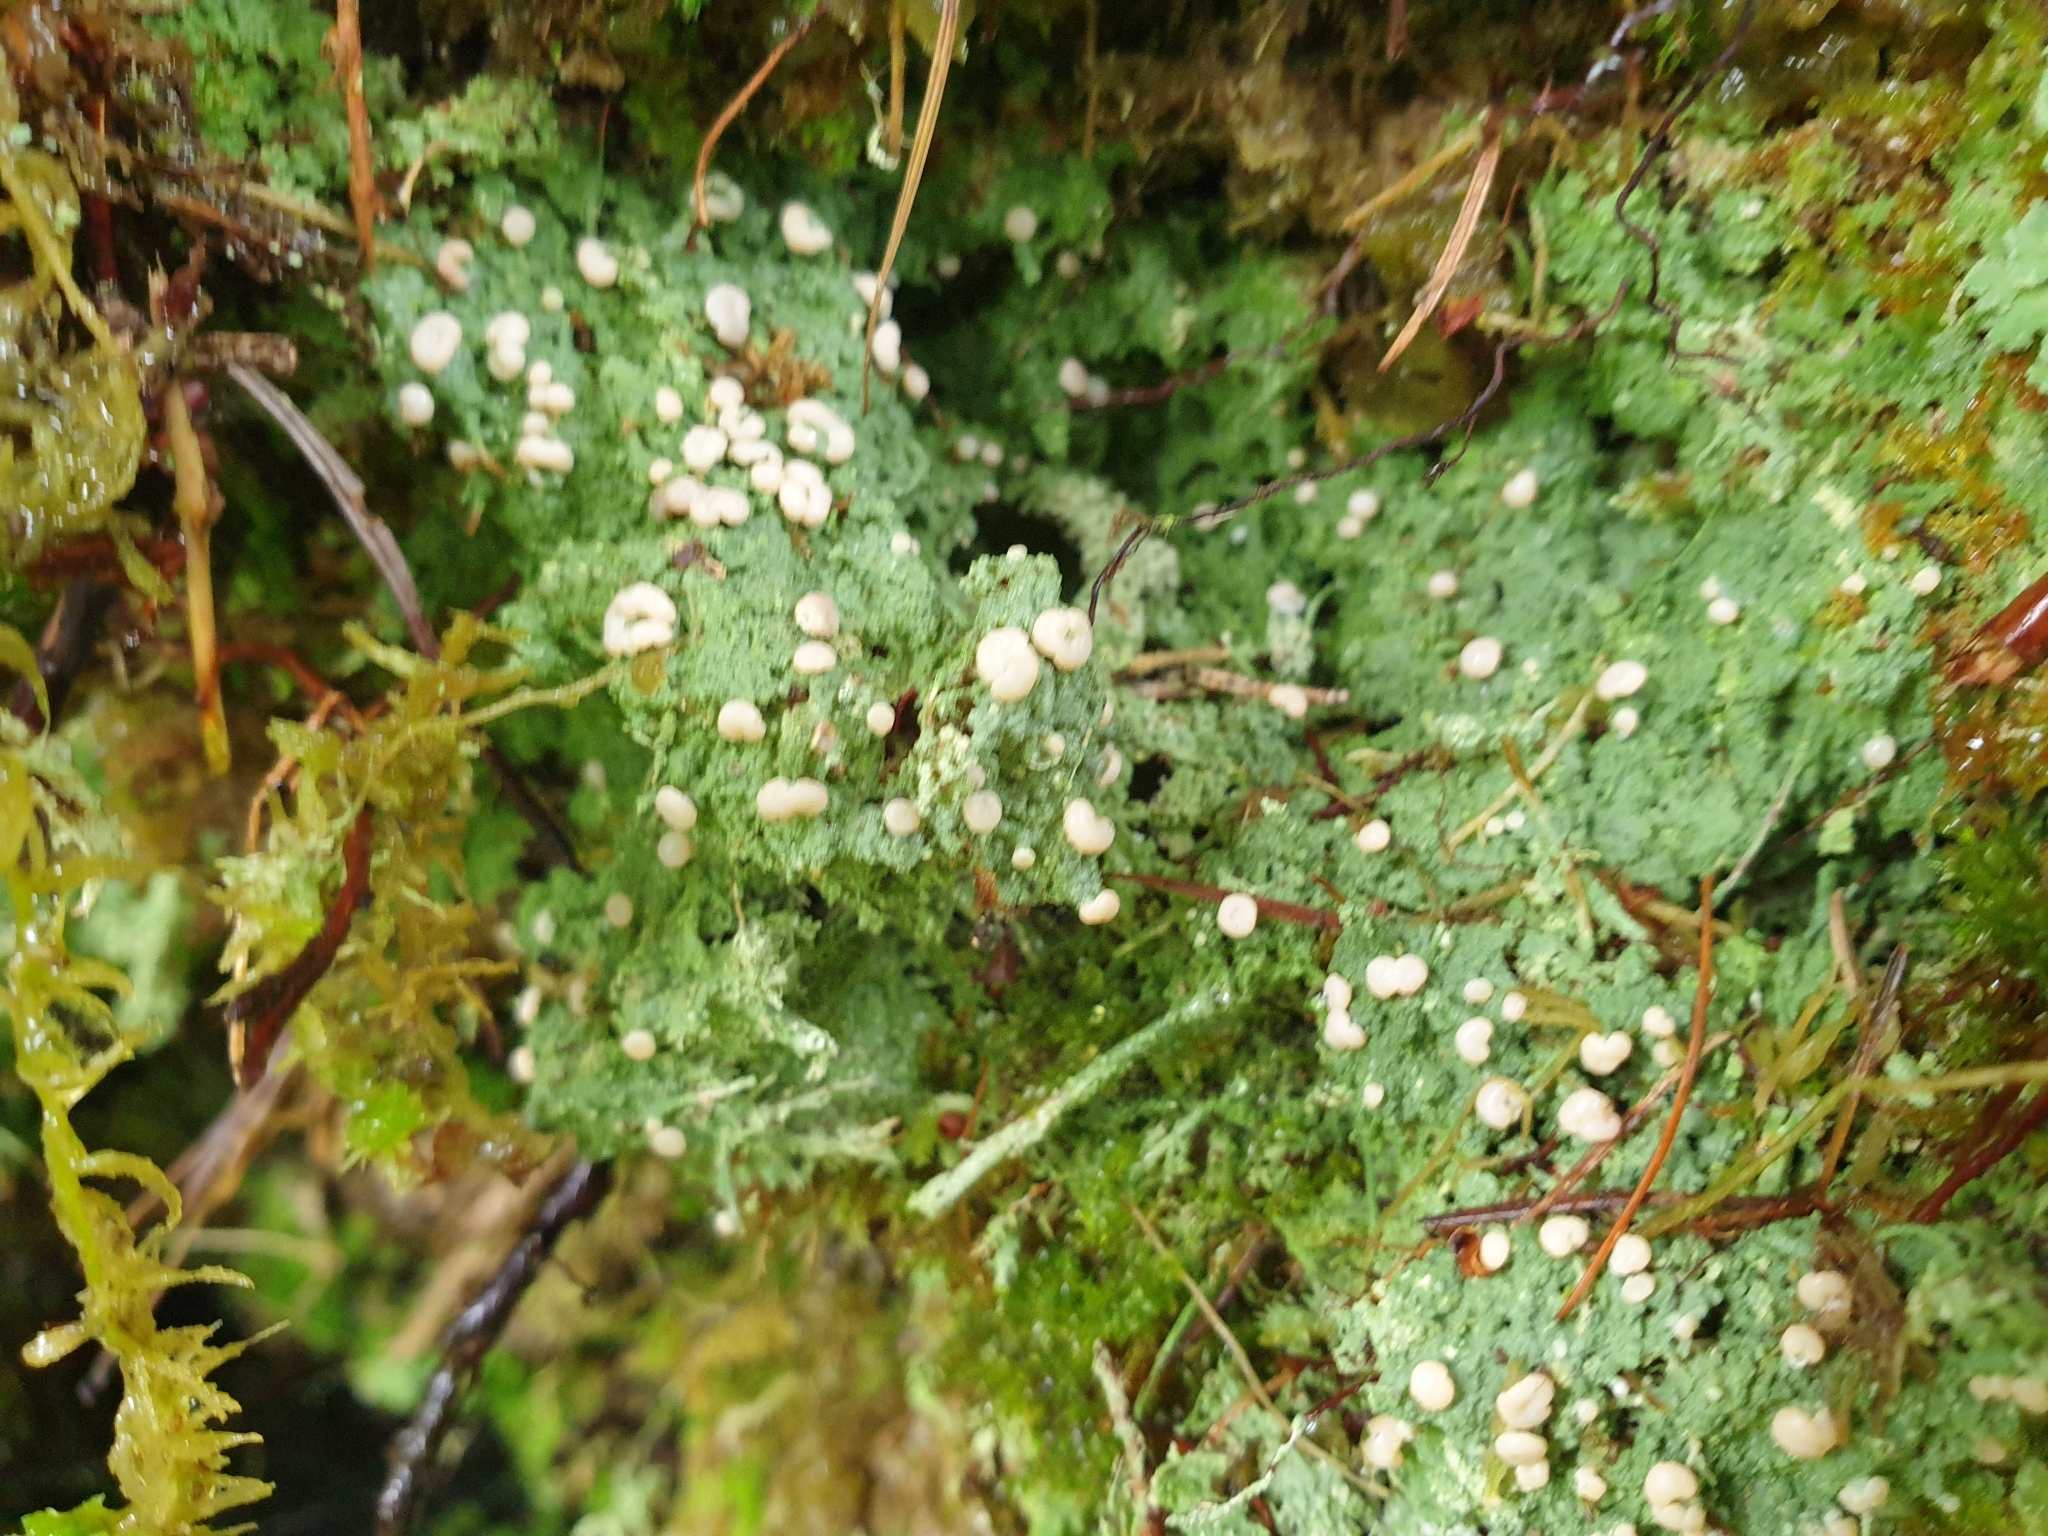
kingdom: Fungi
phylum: Ascomycota
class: Lecanoromycetes
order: Pertusariales
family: Icmadophilaceae
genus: Icmadophila
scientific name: Icmadophila ericetorum
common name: Candy lichen
